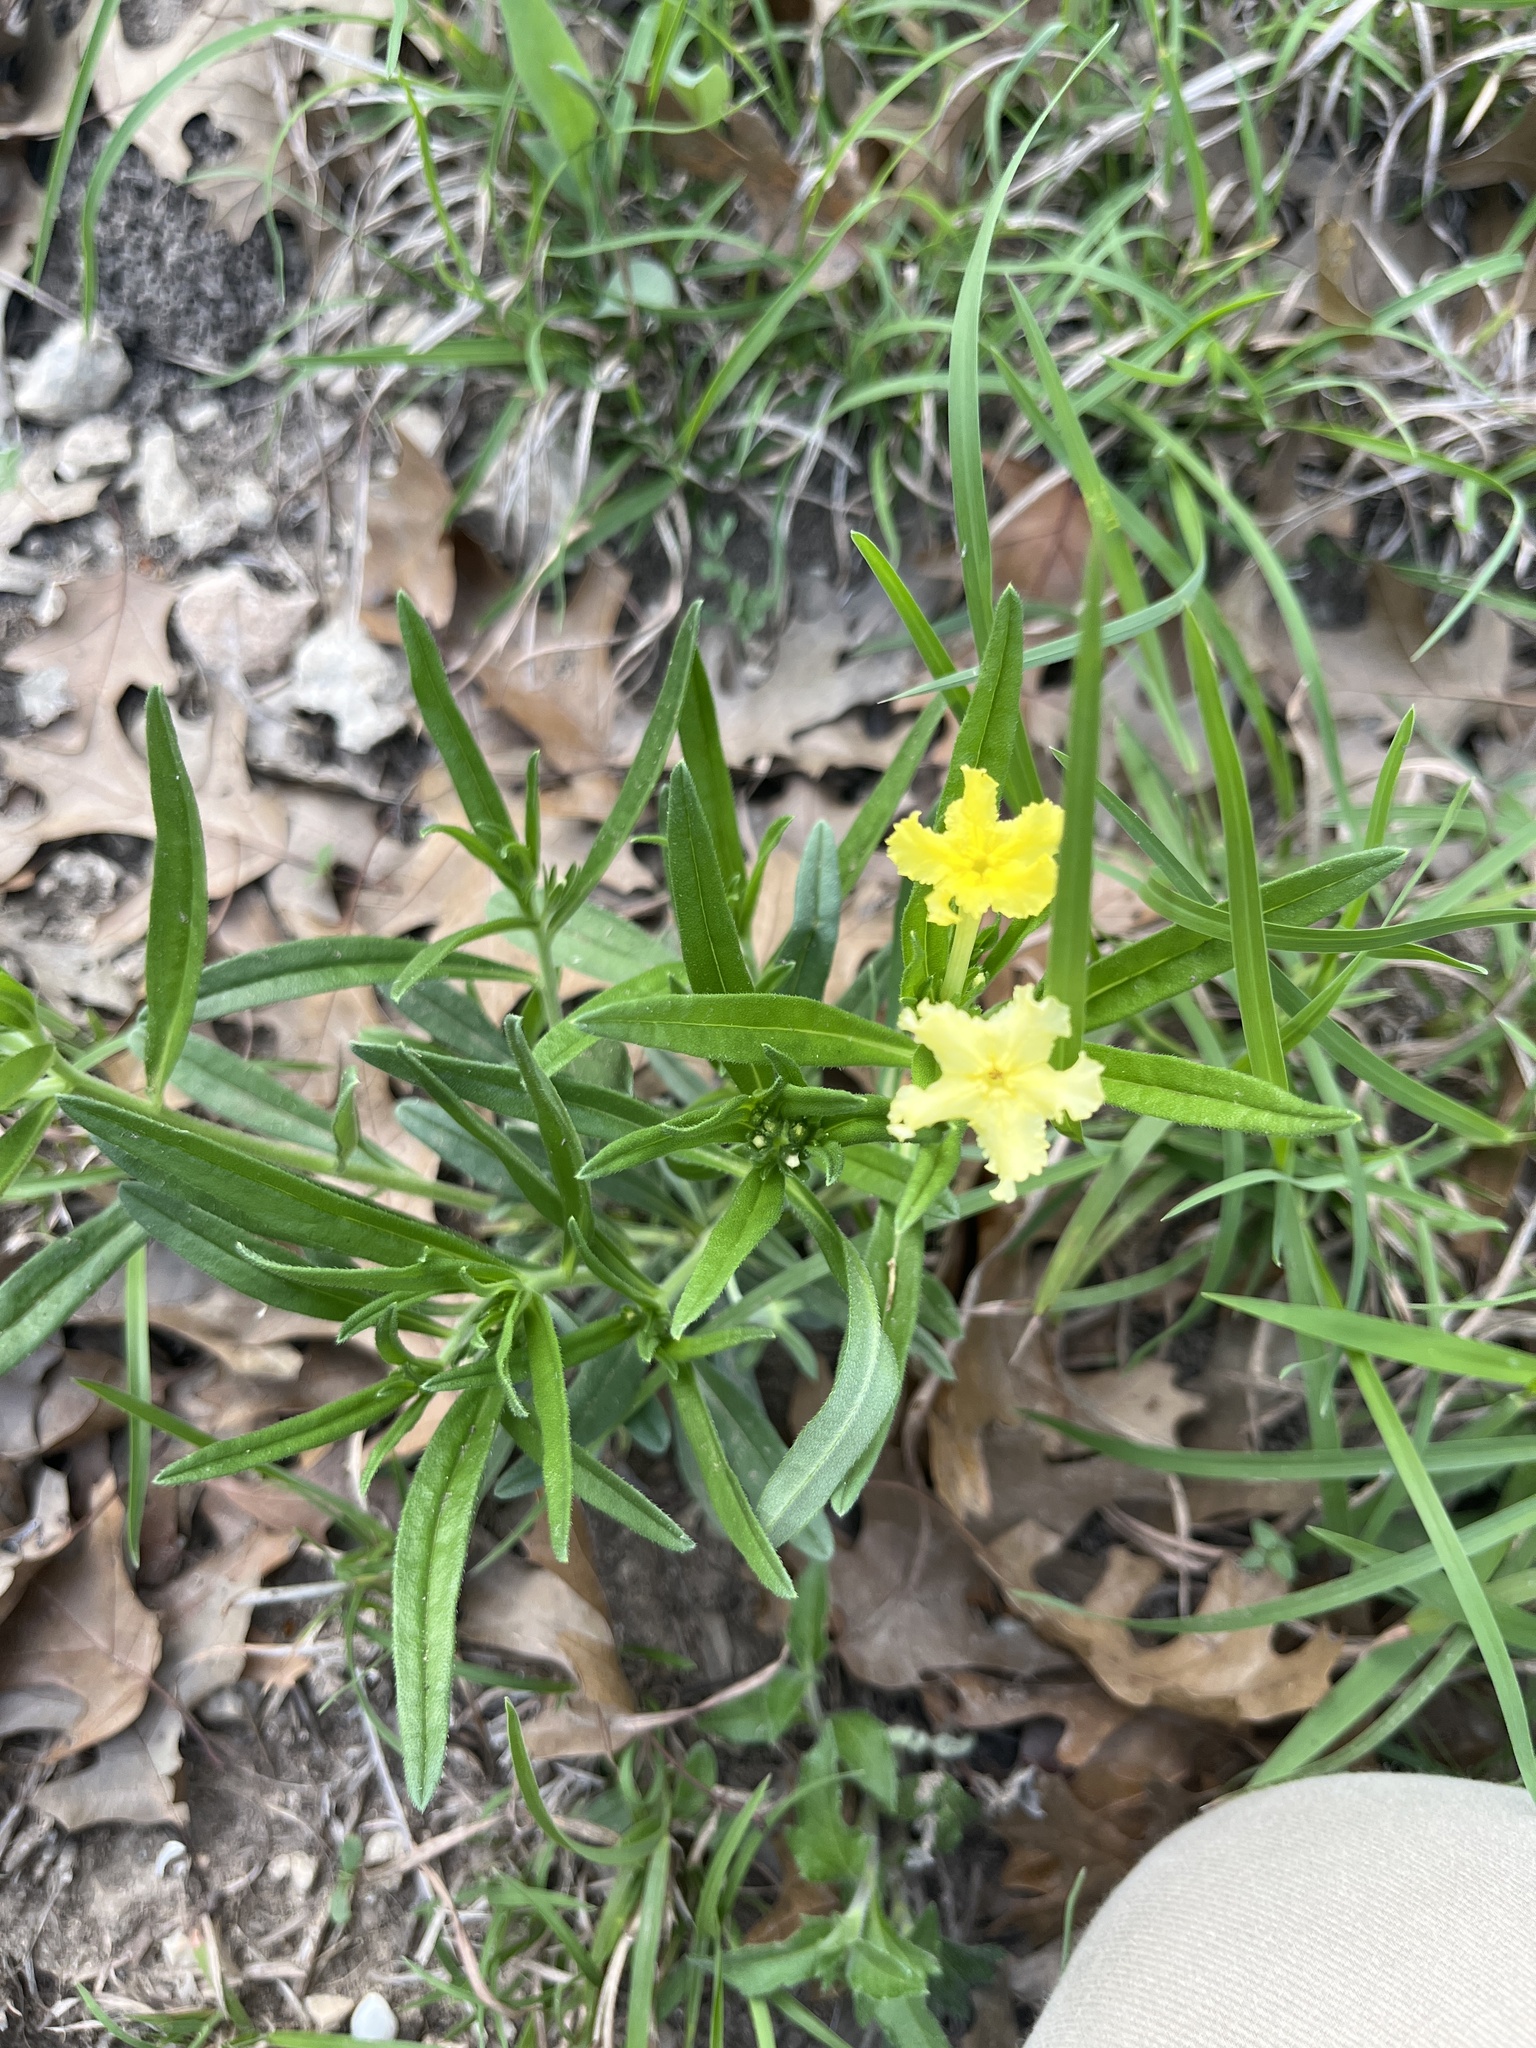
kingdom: Plantae
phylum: Tracheophyta
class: Magnoliopsida
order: Boraginales
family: Boraginaceae
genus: Lithospermum
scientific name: Lithospermum incisum
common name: Fringed gromwell
